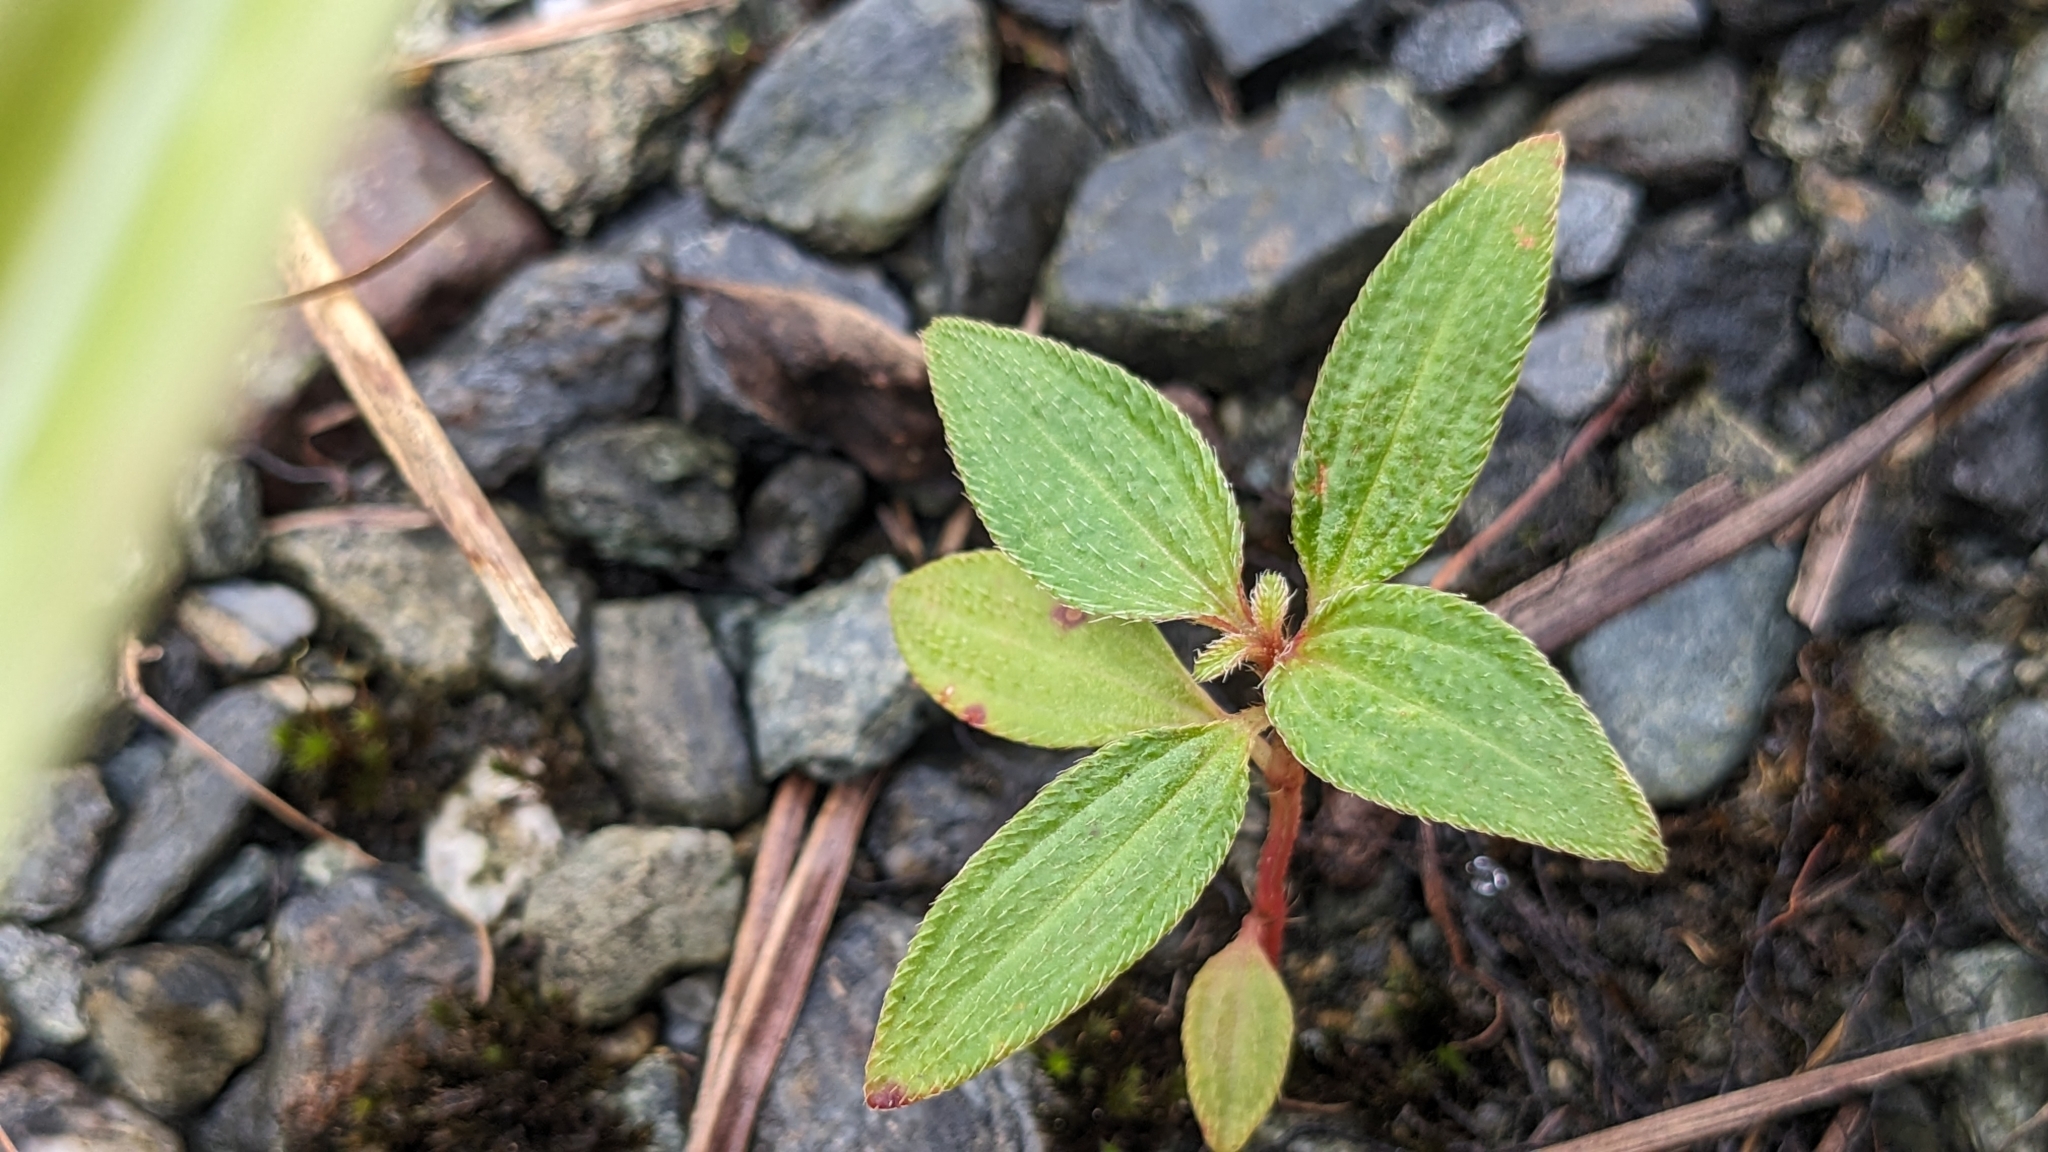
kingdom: Plantae
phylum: Tracheophyta
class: Magnoliopsida
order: Myrtales
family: Melastomataceae
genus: Melastoma
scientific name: Melastoma scaberrima
